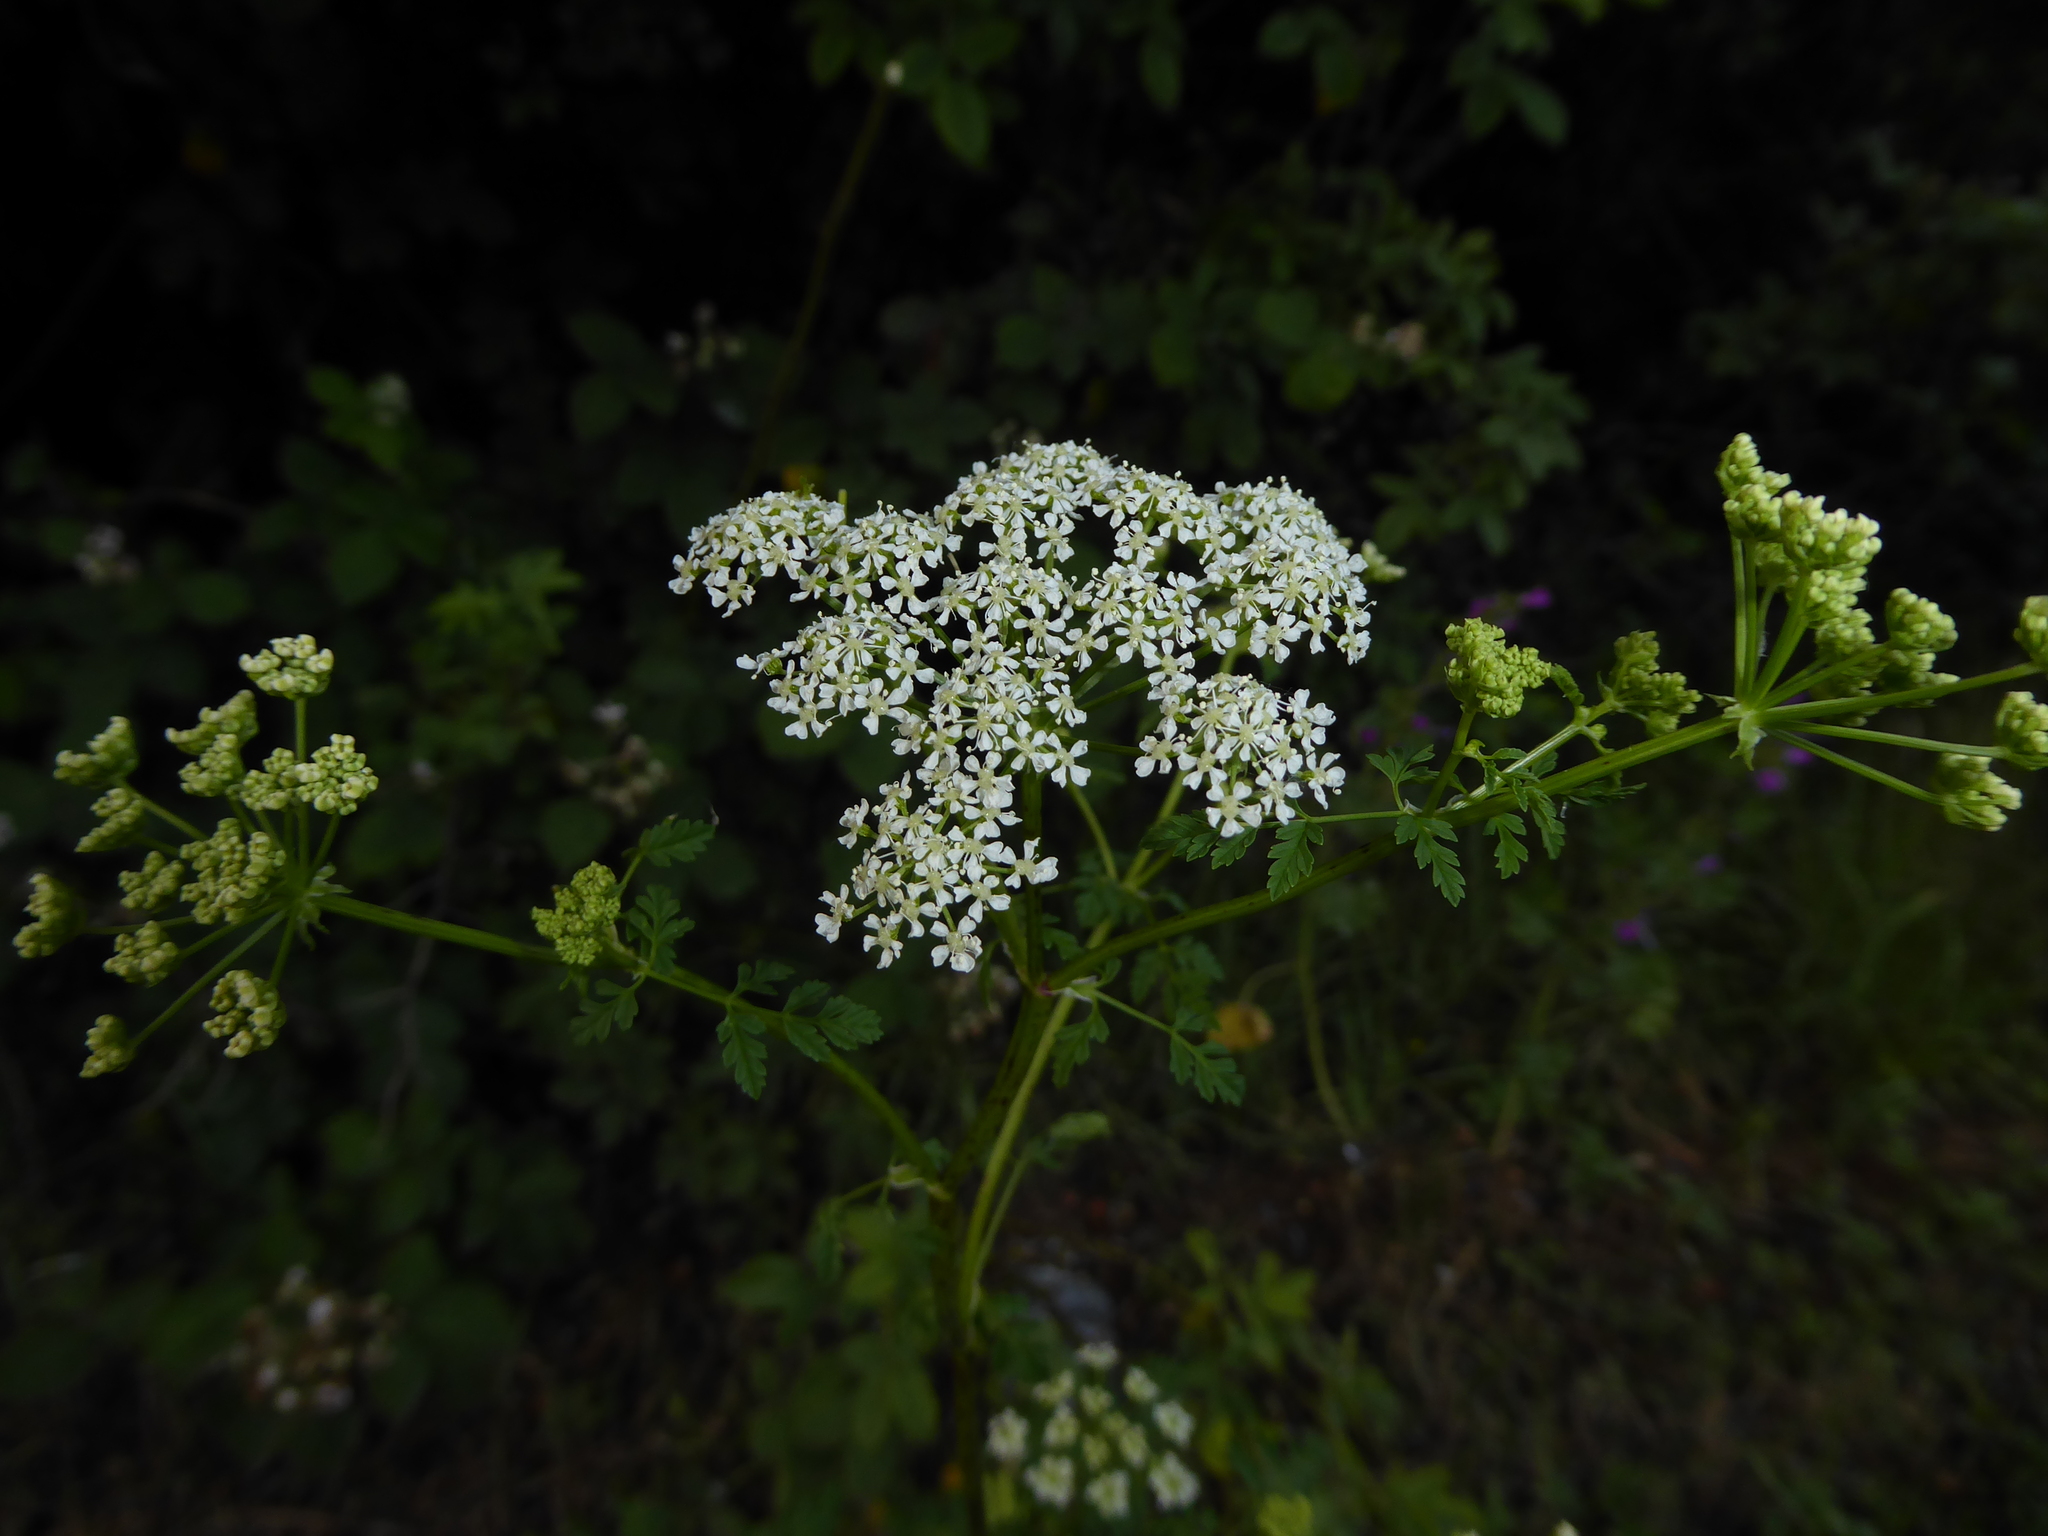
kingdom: Plantae
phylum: Tracheophyta
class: Magnoliopsida
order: Apiales
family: Apiaceae
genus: Conium
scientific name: Conium maculatum
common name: Hemlock
